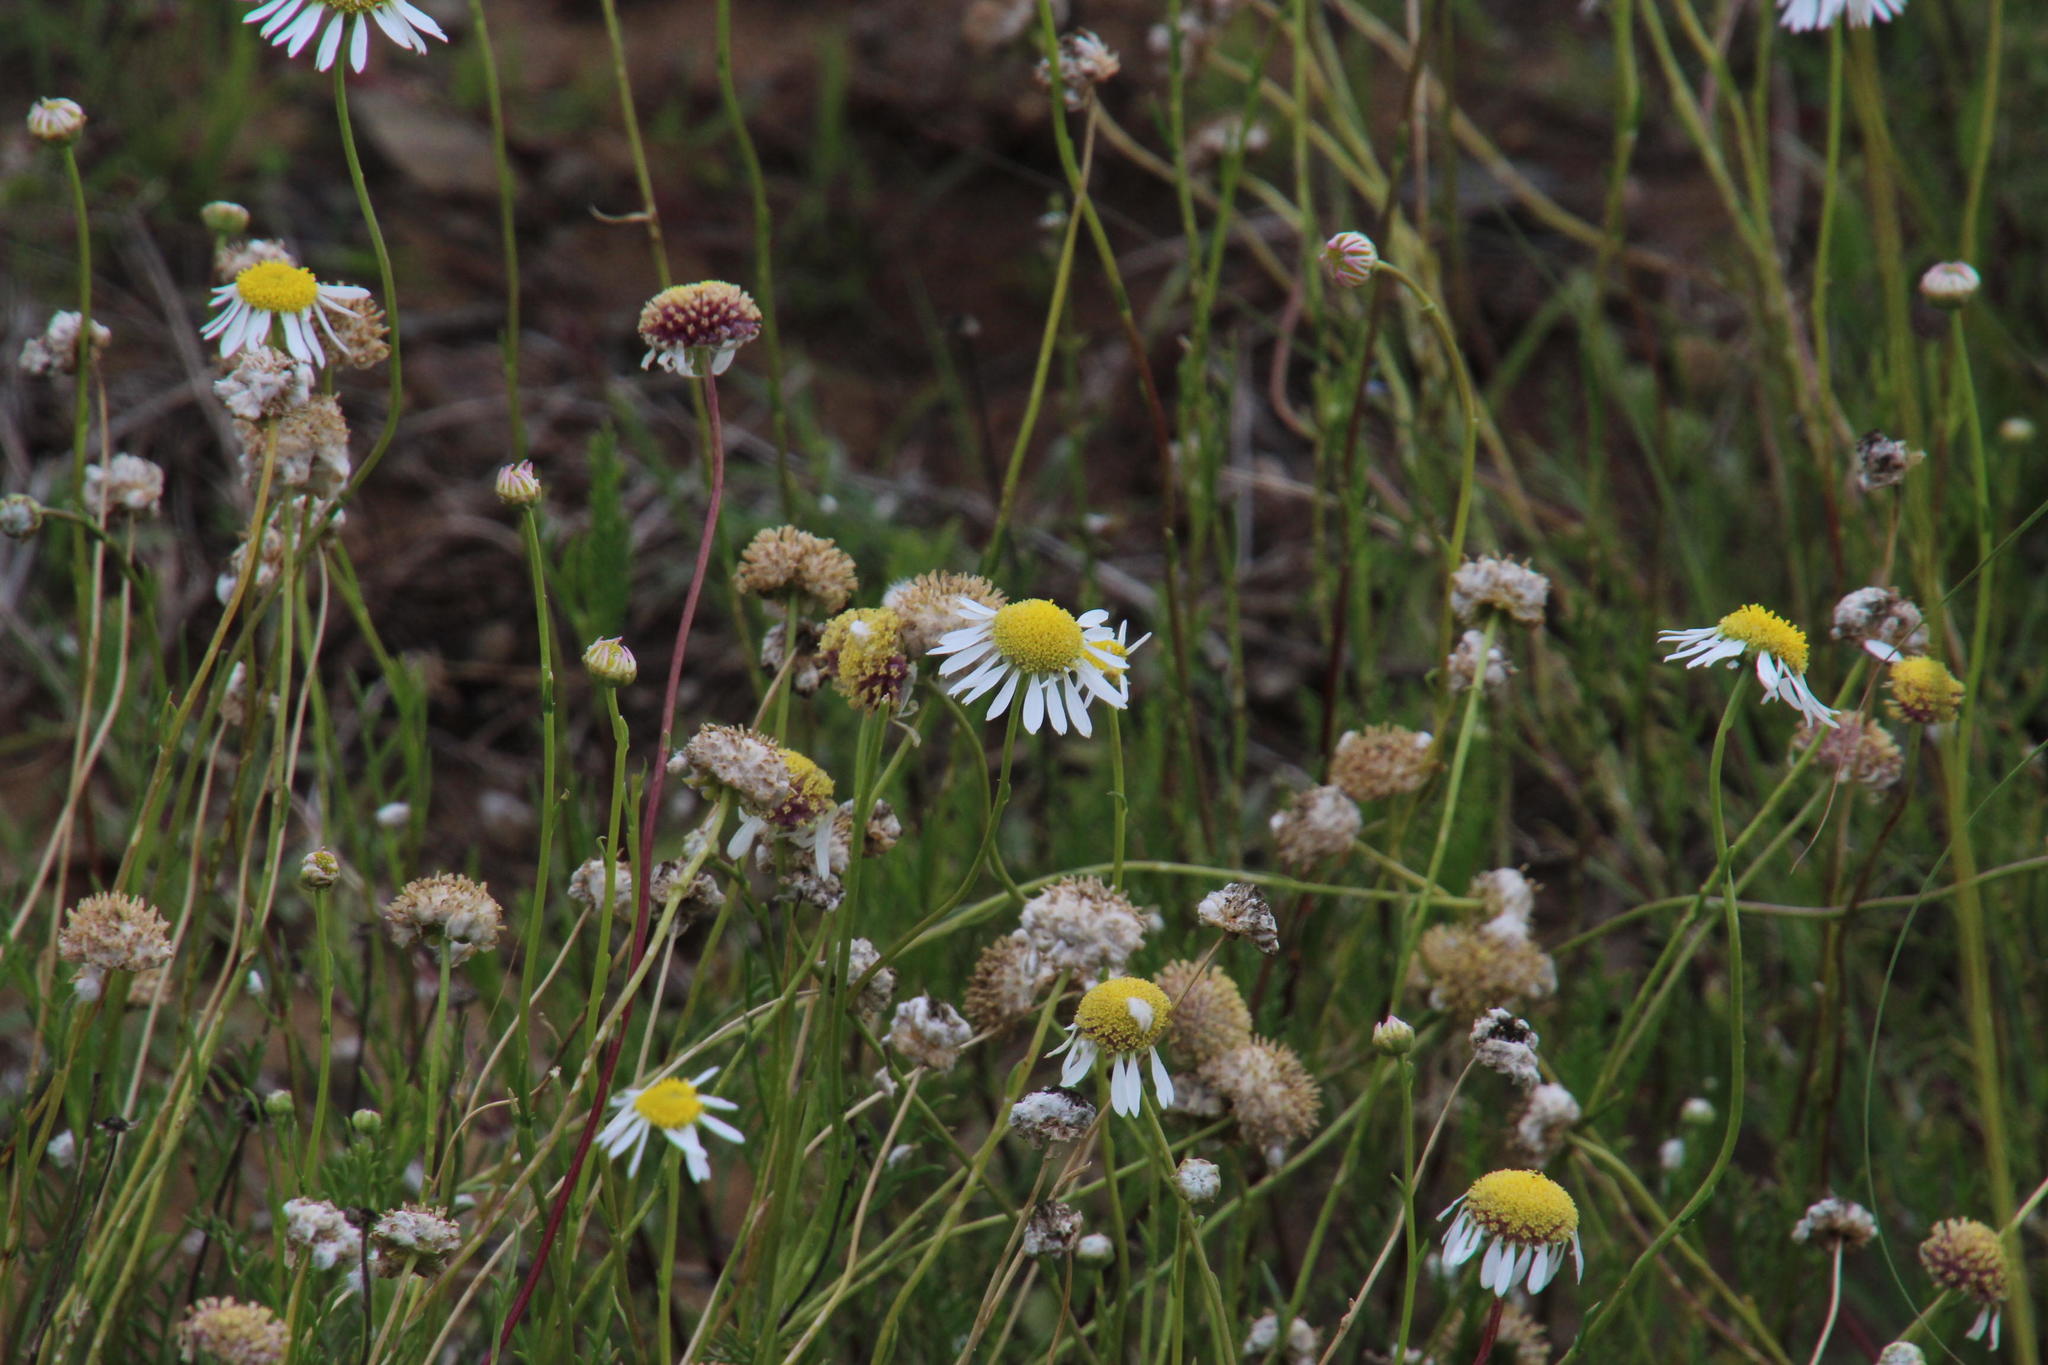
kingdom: Plantae
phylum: Tracheophyta
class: Magnoliopsida
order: Asterales
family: Asteraceae
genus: Lasiospermum
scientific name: Lasiospermum bipinnatum
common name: Cocoonhead
